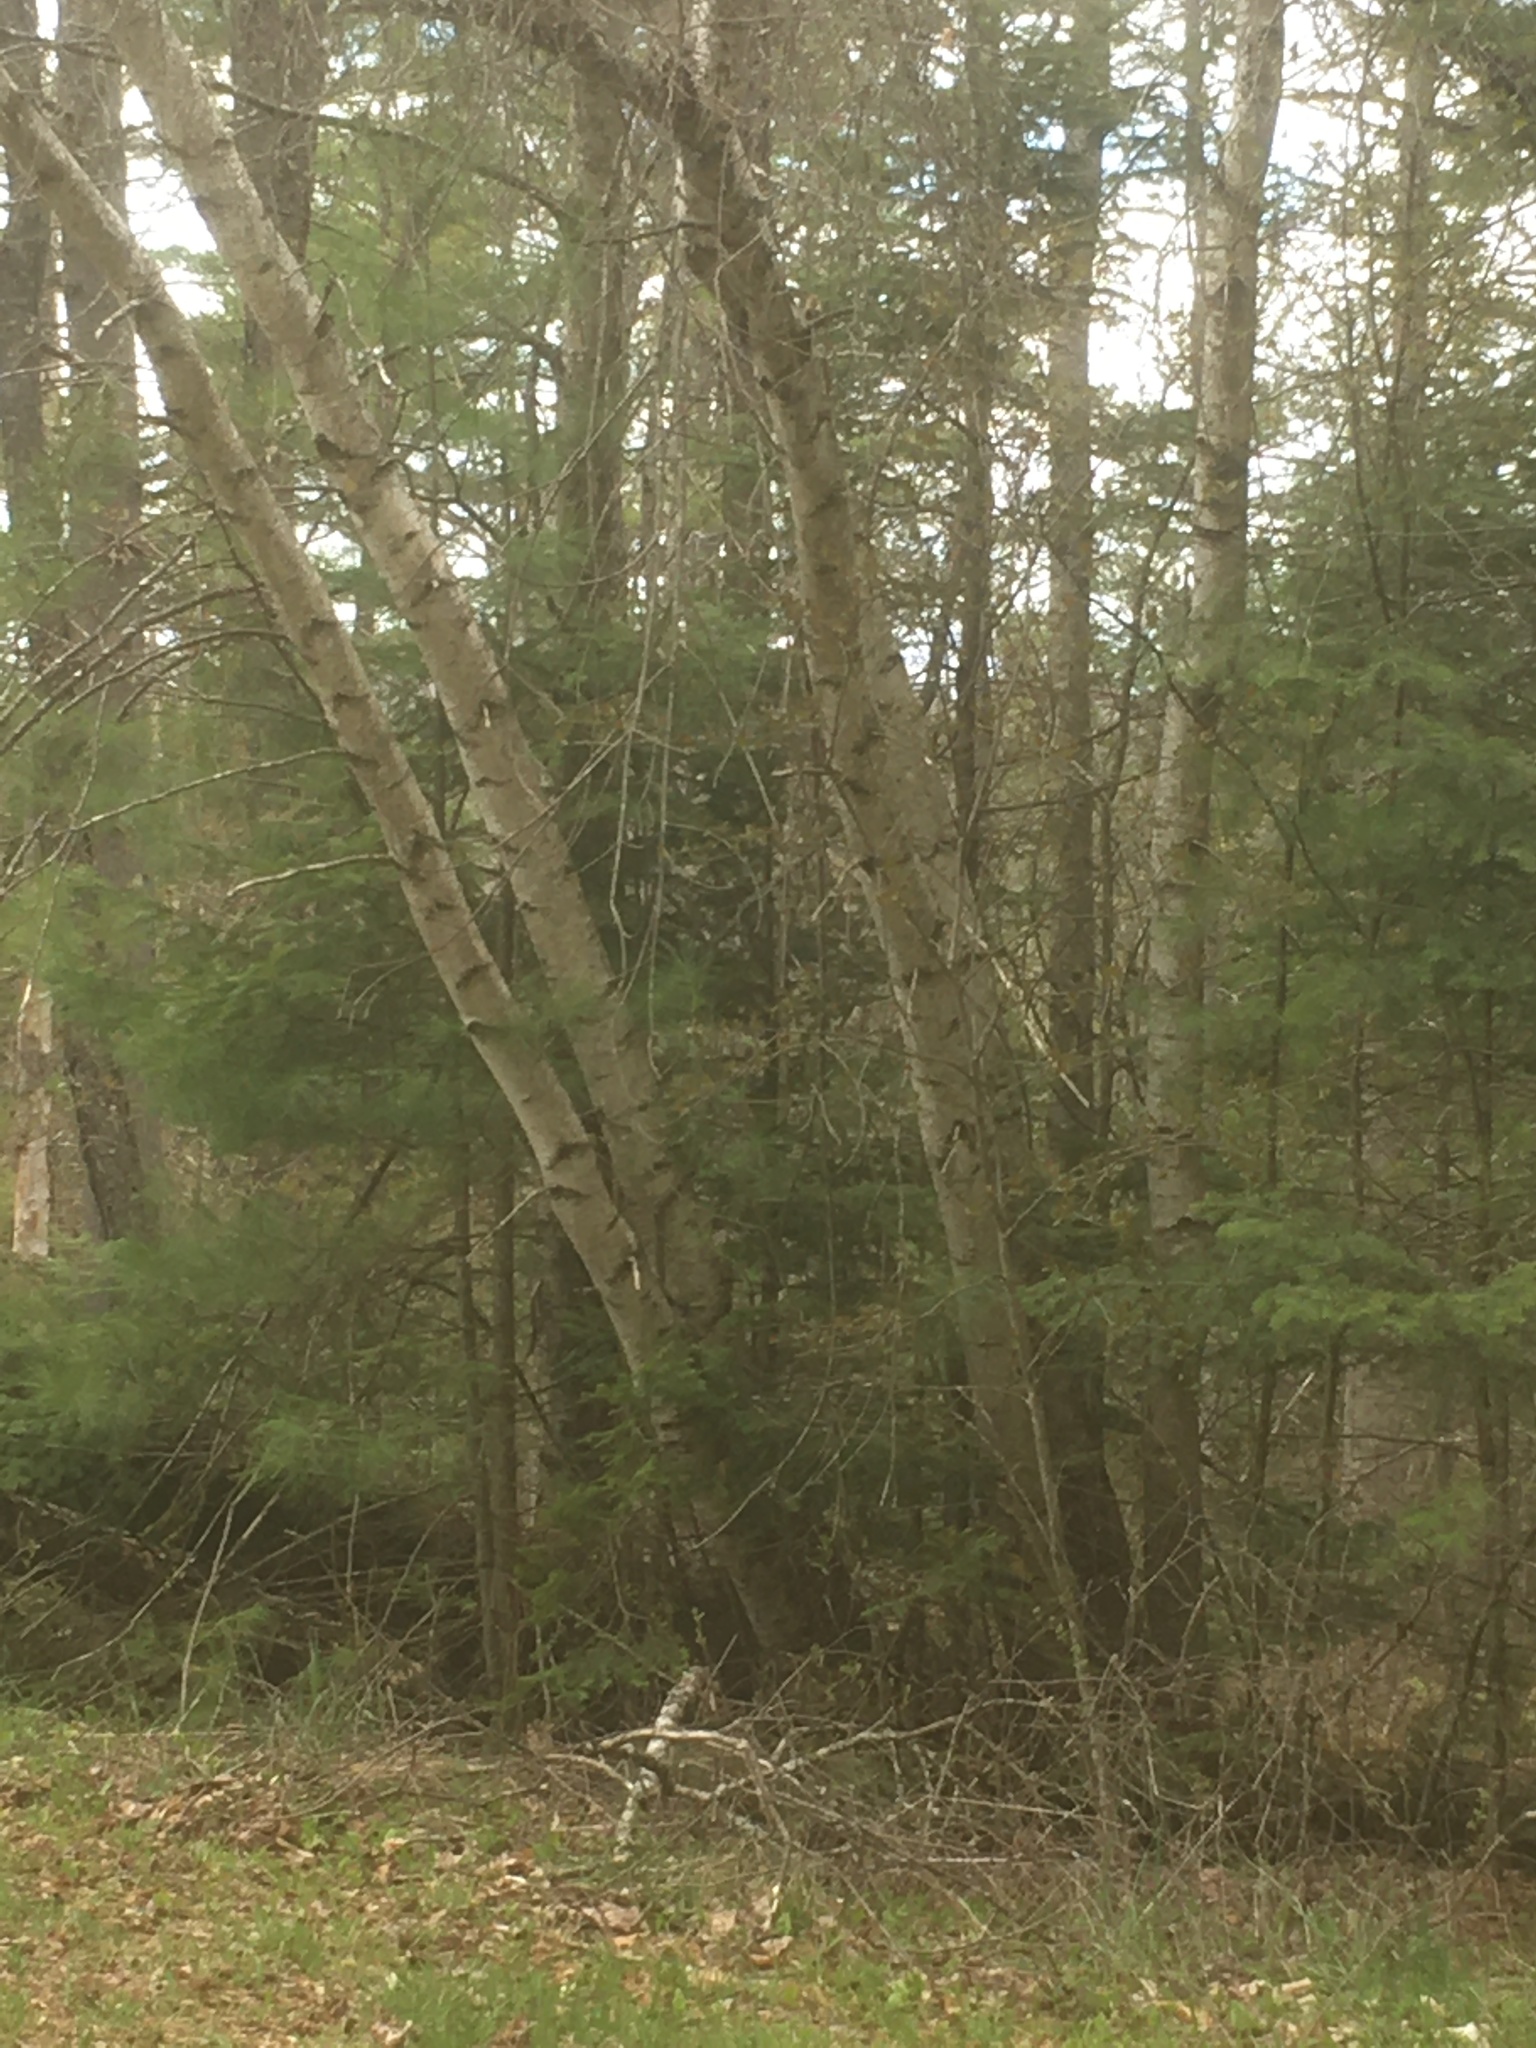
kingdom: Plantae
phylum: Tracheophyta
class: Magnoliopsida
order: Fagales
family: Betulaceae
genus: Betula
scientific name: Betula populifolia
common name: Fire birch
